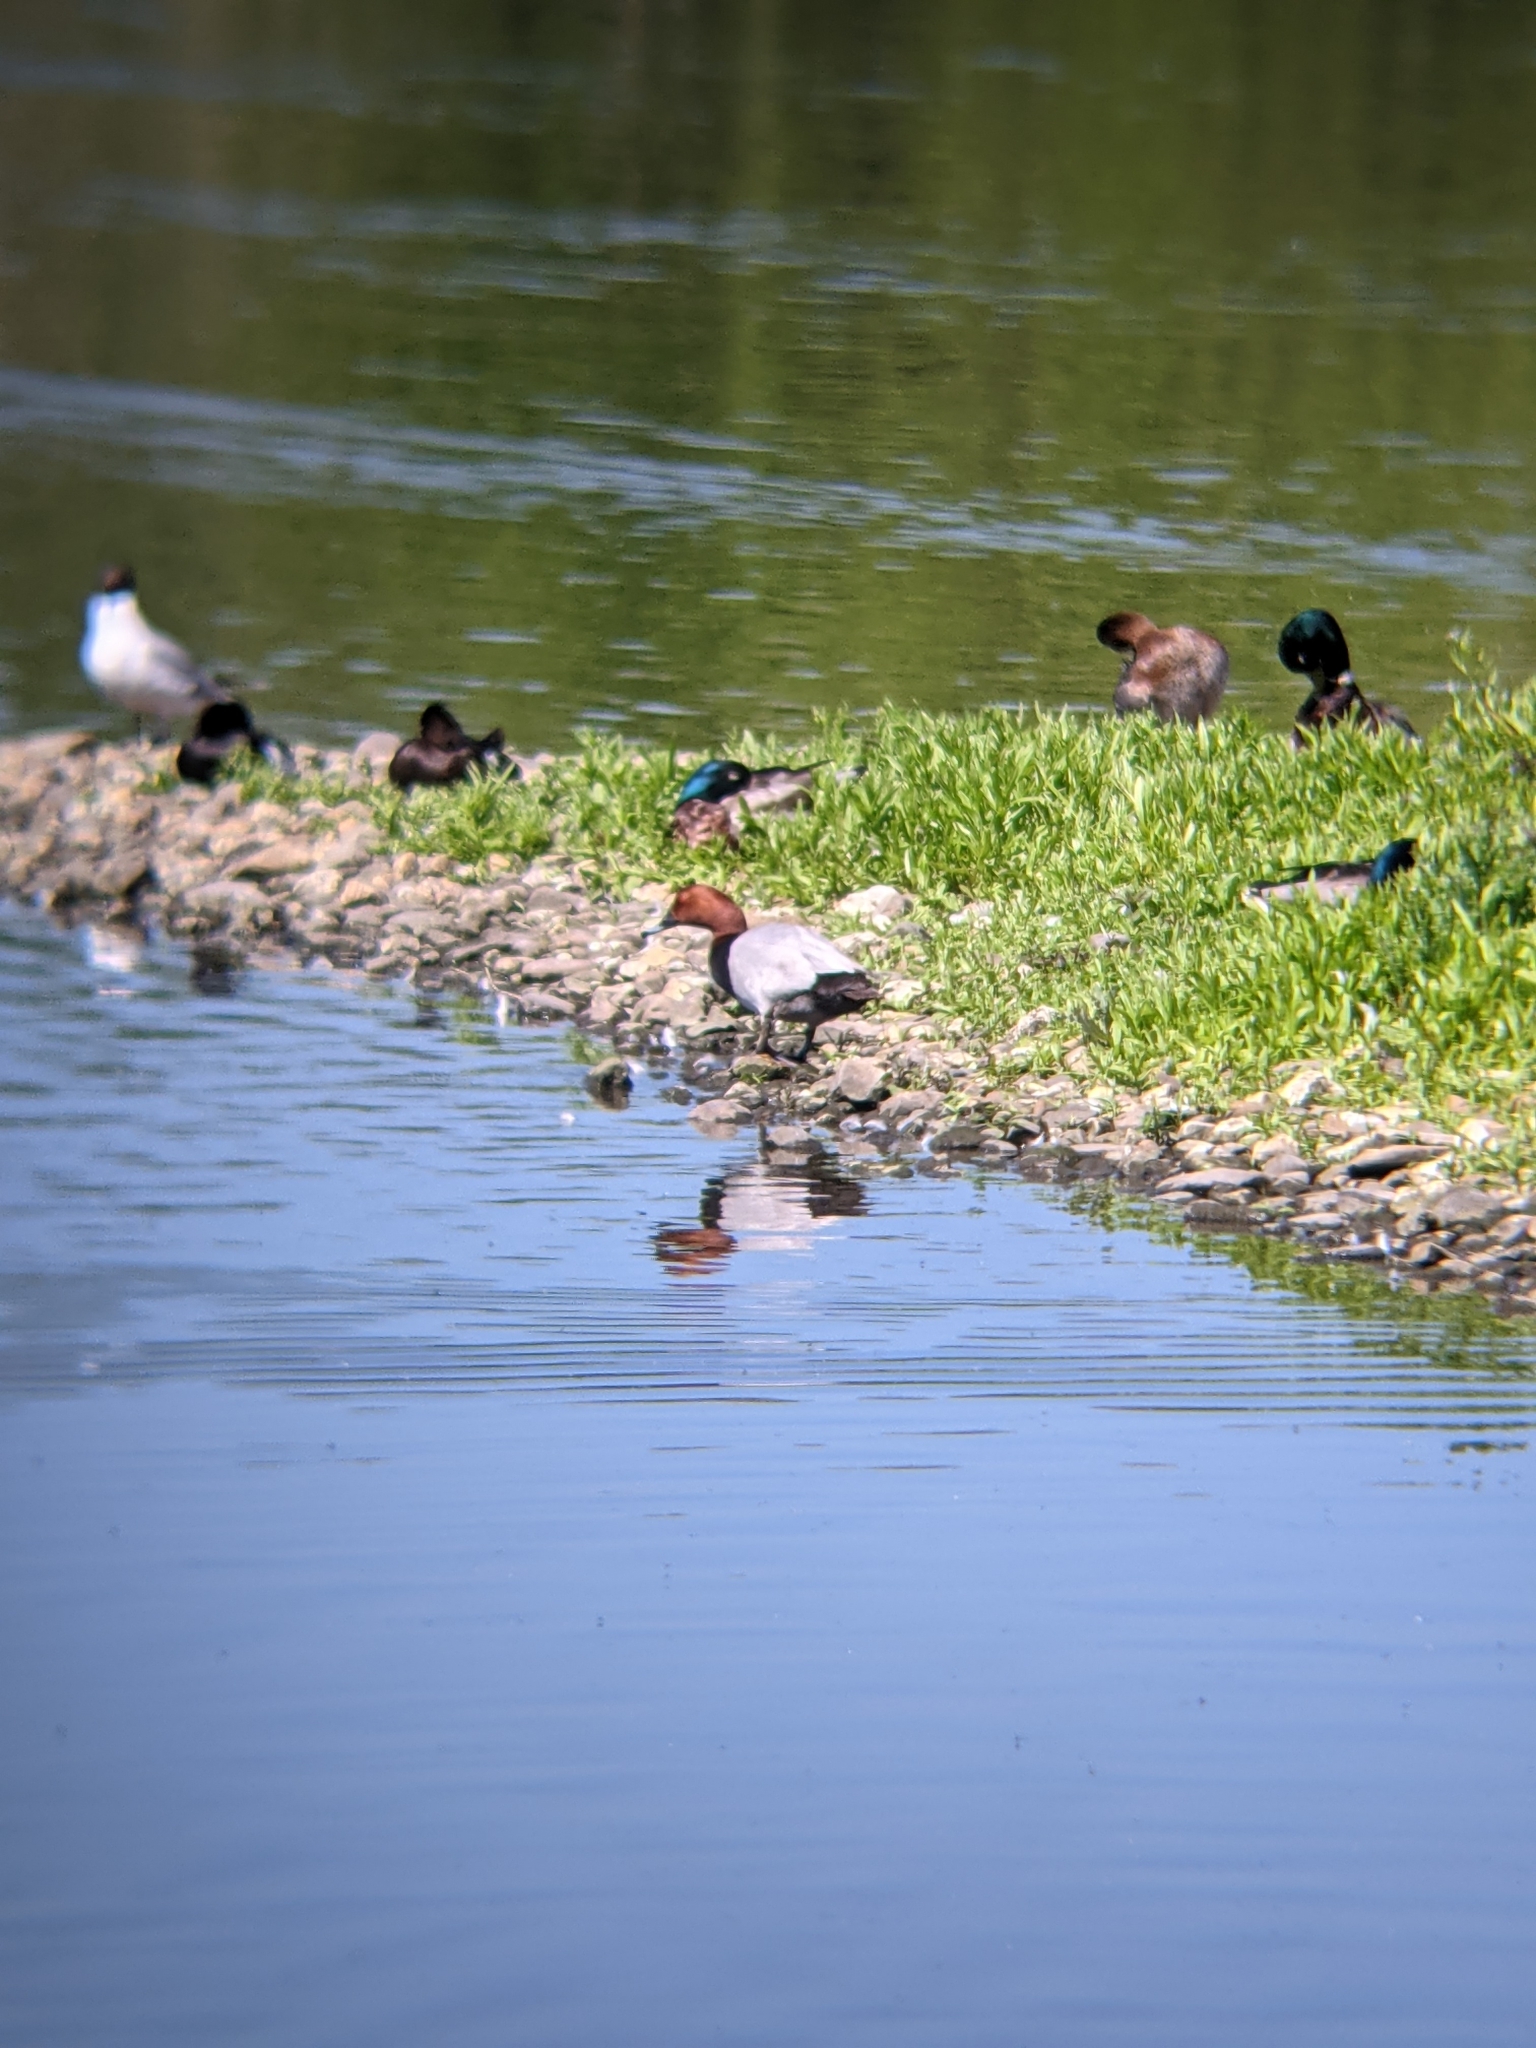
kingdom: Animalia
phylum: Chordata
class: Aves
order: Anseriformes
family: Anatidae
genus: Aythya
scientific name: Aythya ferina
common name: Common pochard
